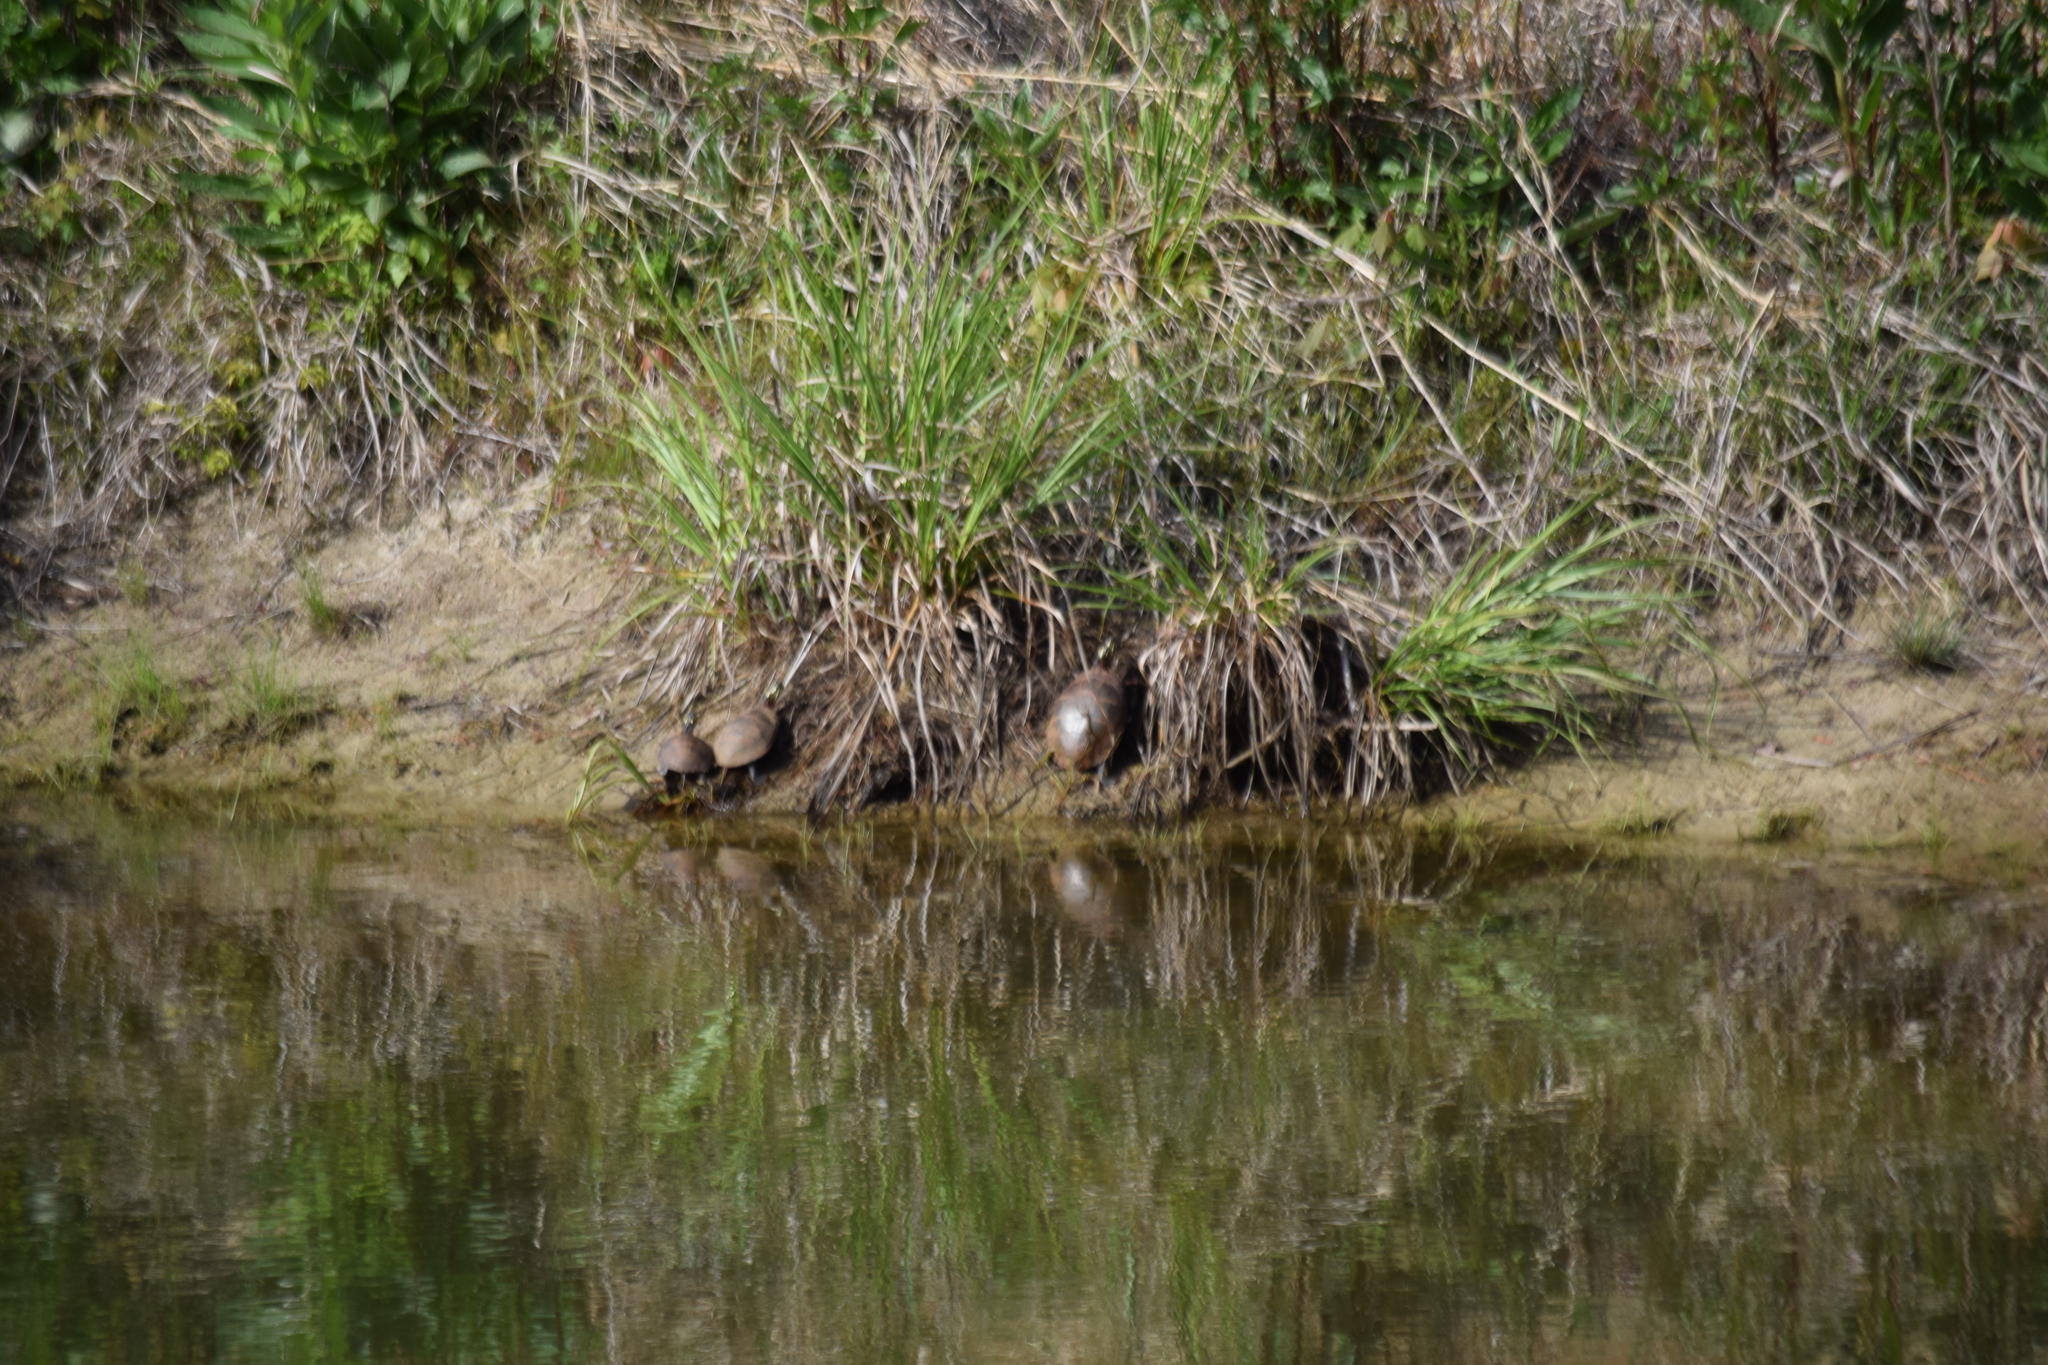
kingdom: Animalia
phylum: Chordata
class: Testudines
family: Emydidae
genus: Chrysemys
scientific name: Chrysemys picta
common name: Painted turtle
